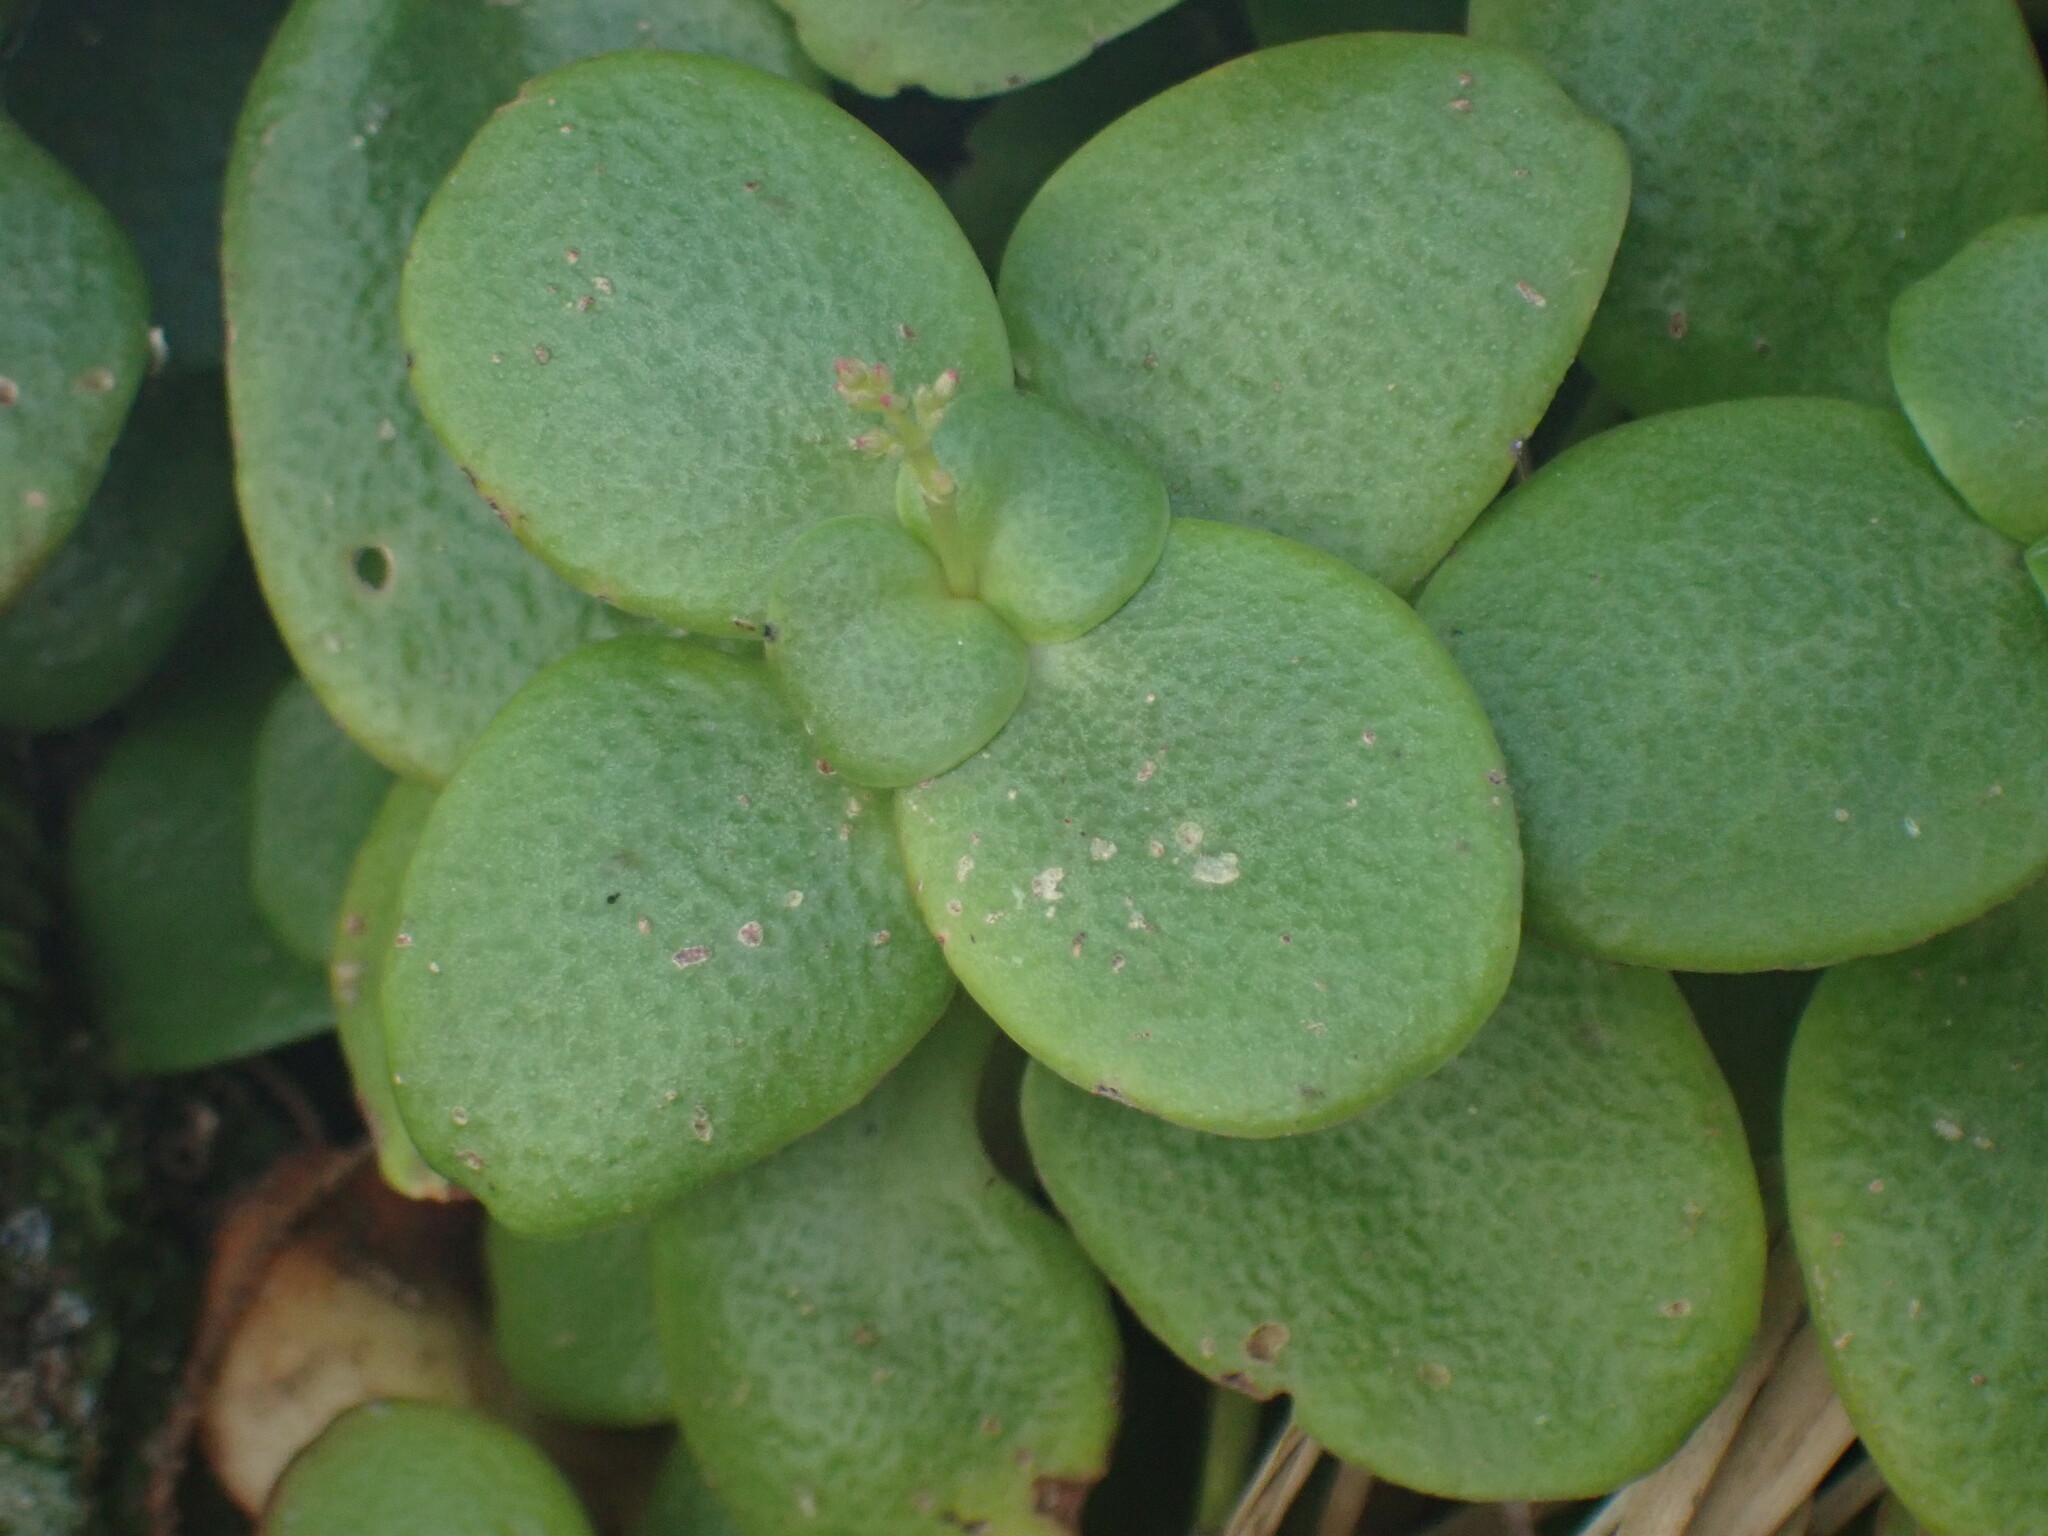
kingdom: Plantae
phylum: Tracheophyta
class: Magnoliopsida
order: Saxifragales
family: Crassulaceae
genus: Crassula
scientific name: Crassula multicava
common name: Cape province pygmyweed
